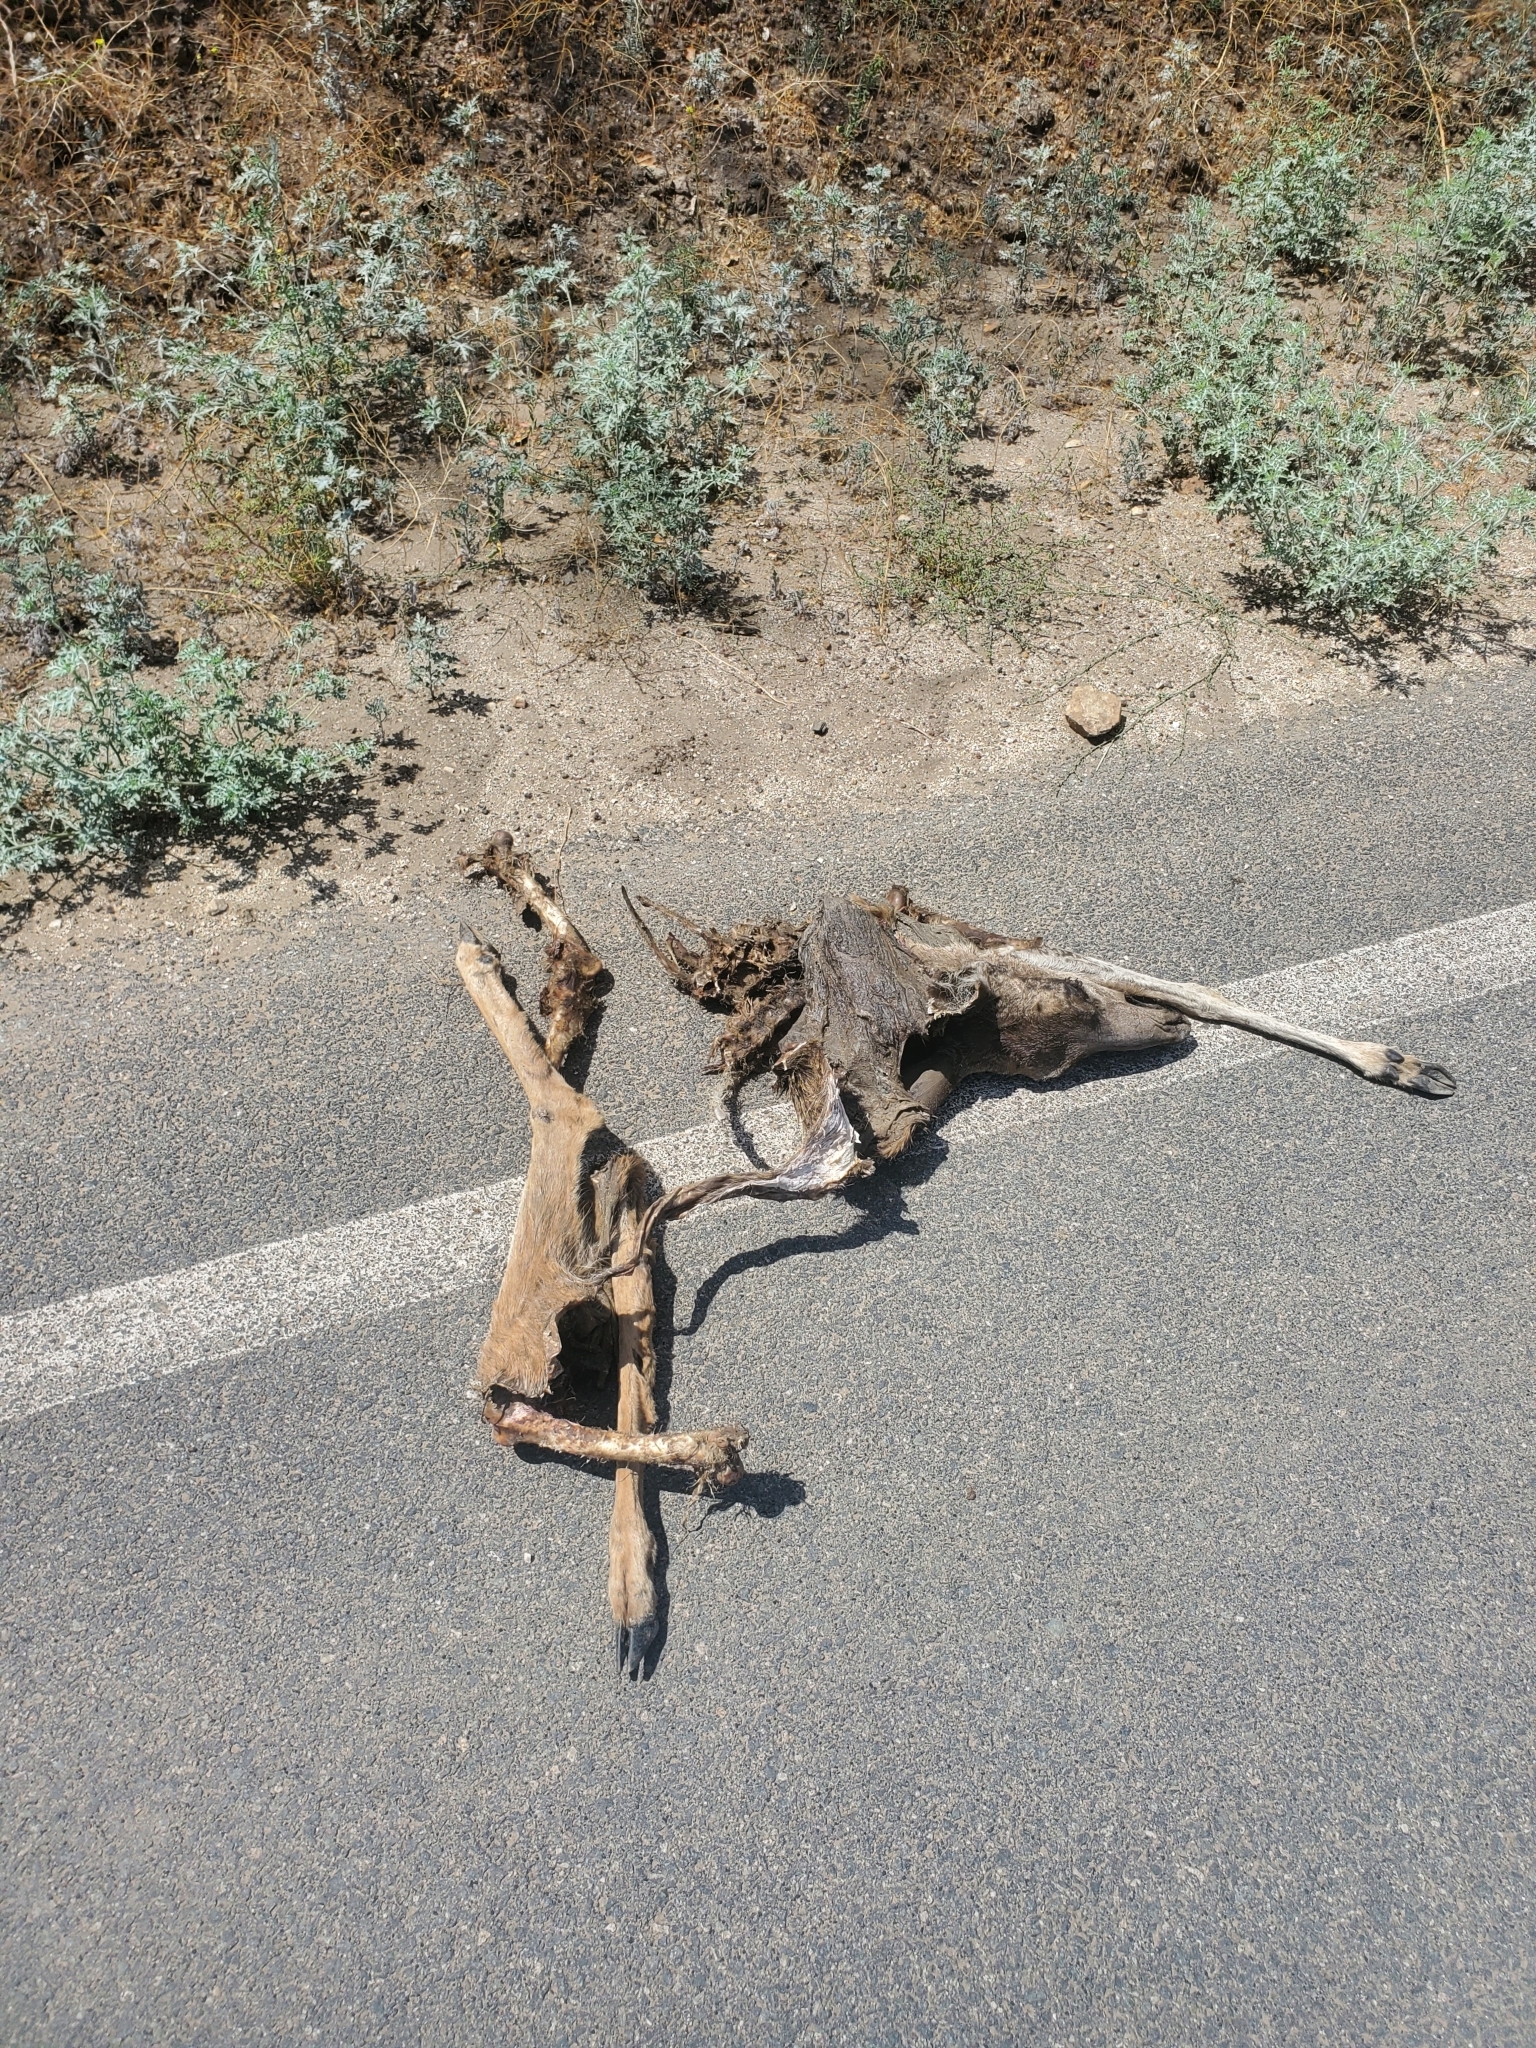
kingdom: Animalia
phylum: Chordata
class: Mammalia
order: Artiodactyla
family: Cervidae
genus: Odocoileus
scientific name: Odocoileus hemionus
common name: Mule deer
